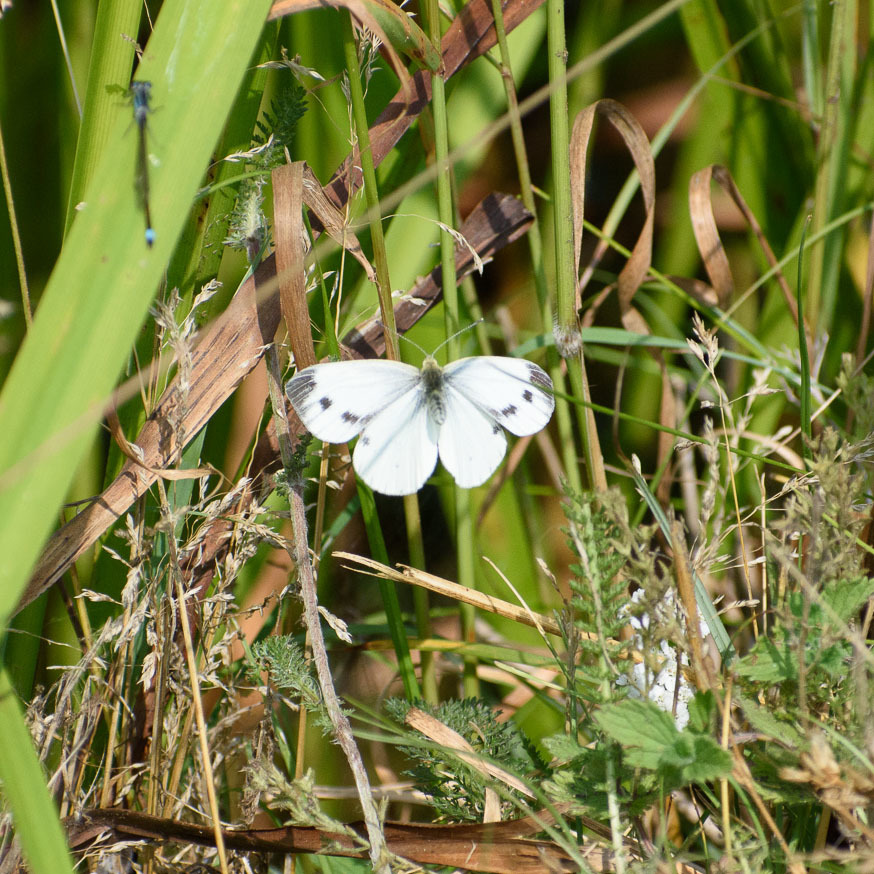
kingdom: Animalia
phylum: Arthropoda
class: Insecta
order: Lepidoptera
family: Pieridae
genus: Pieris
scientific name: Pieris napi
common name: Green-veined white
